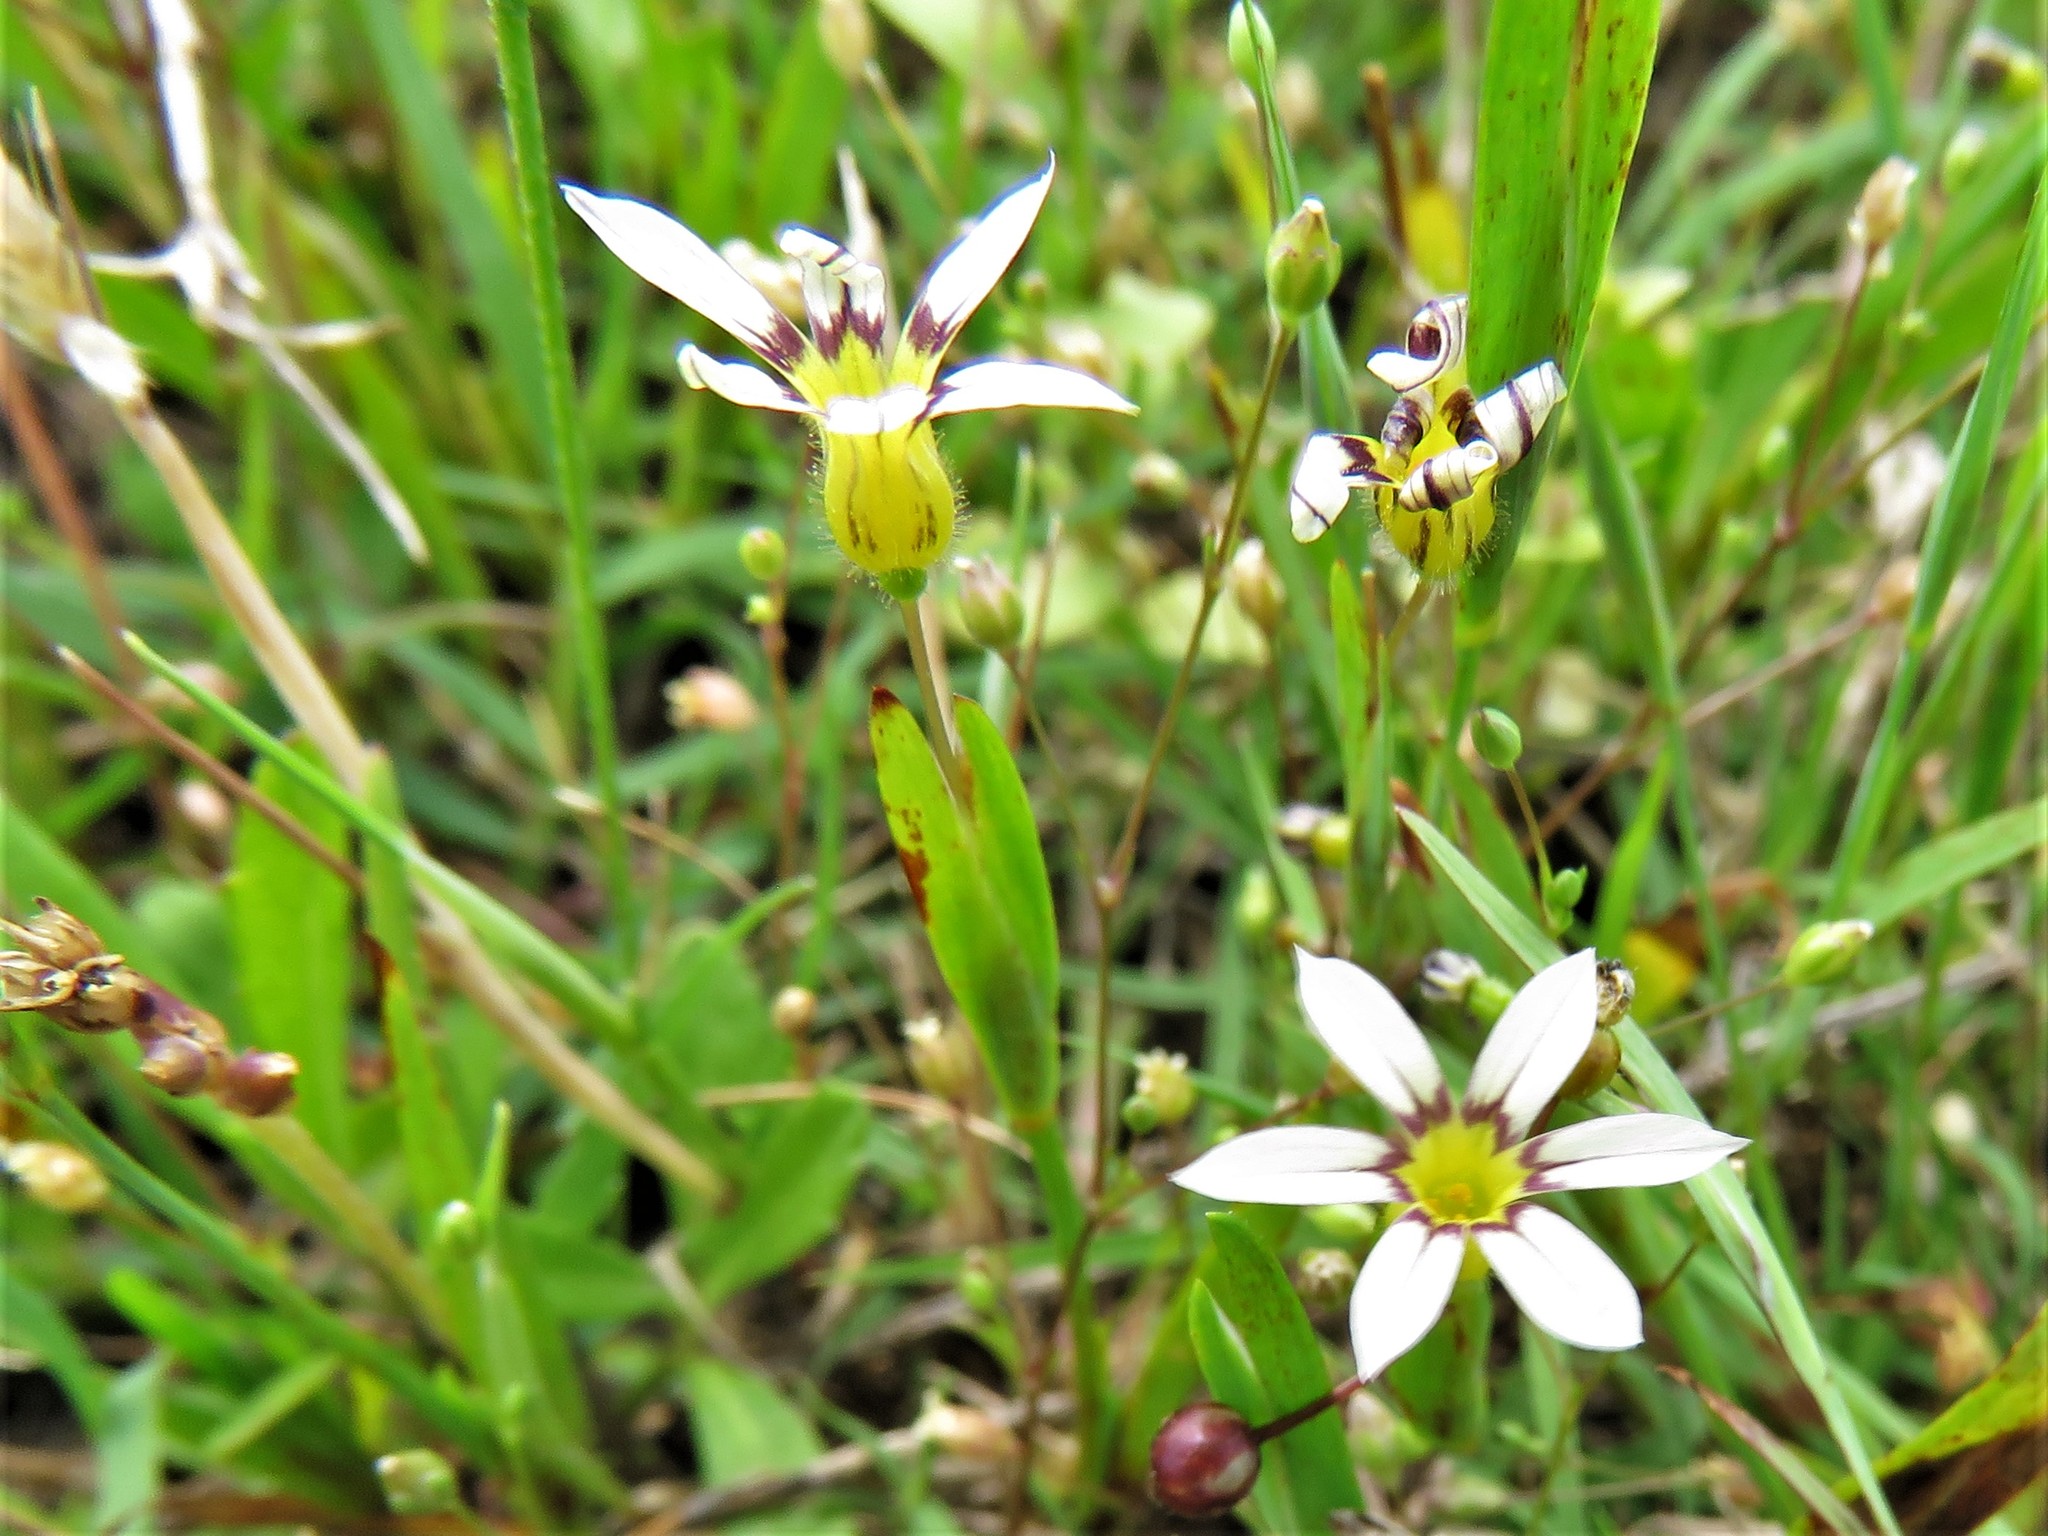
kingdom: Plantae
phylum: Tracheophyta
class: Liliopsida
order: Asparagales
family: Iridaceae
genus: Sisyrinchium
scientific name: Sisyrinchium micranthum
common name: Bermuda pigroot
